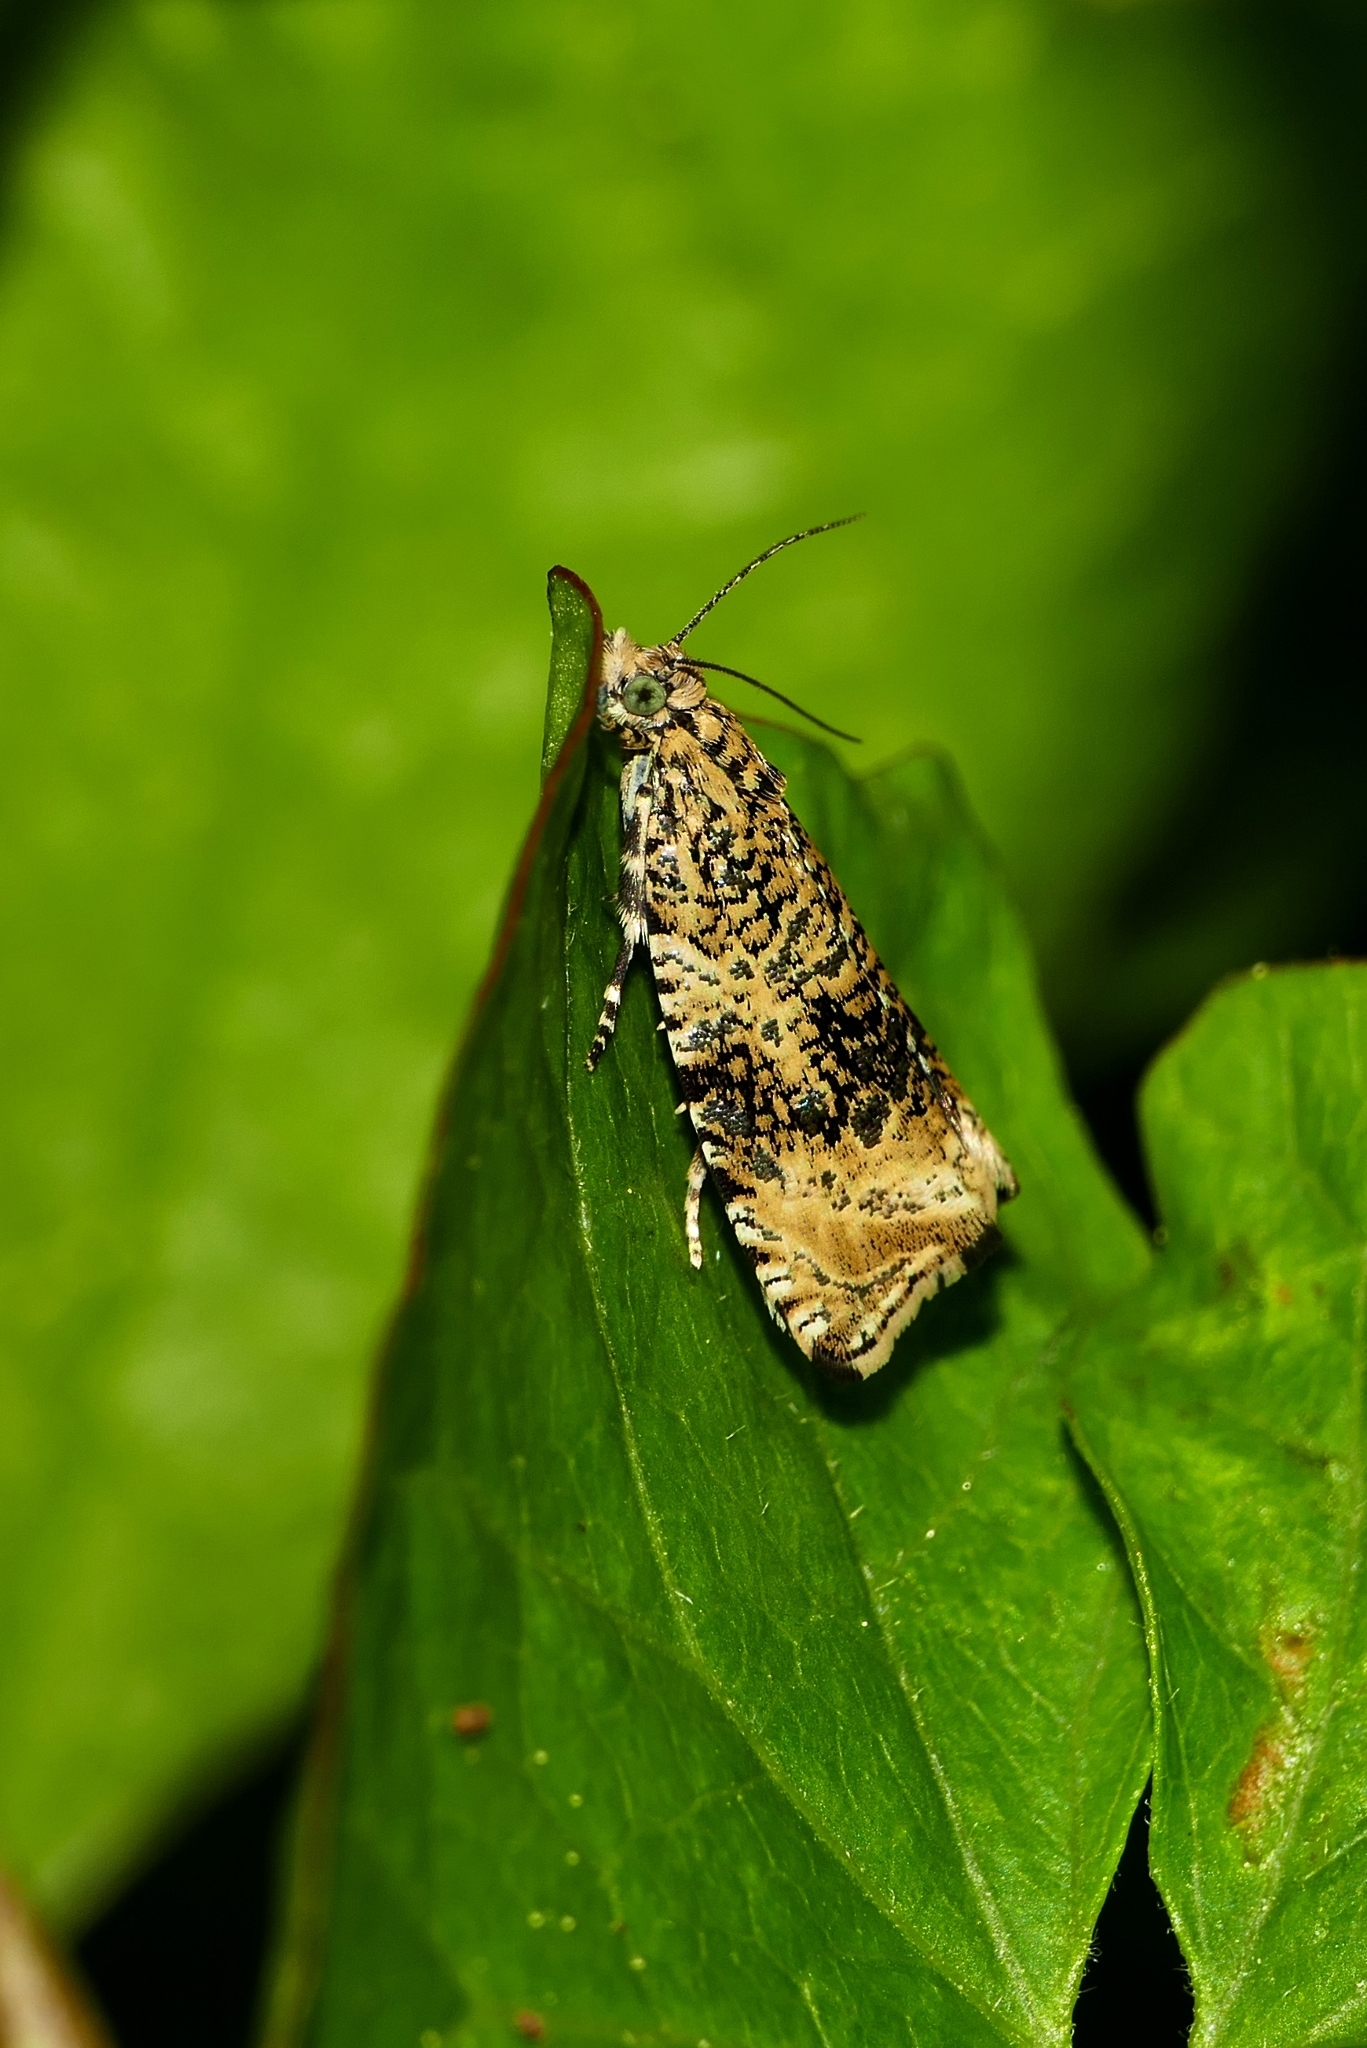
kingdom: Animalia
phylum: Arthropoda
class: Insecta
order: Lepidoptera
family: Tortricidae
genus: Syricoris
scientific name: Syricoris lacunana
